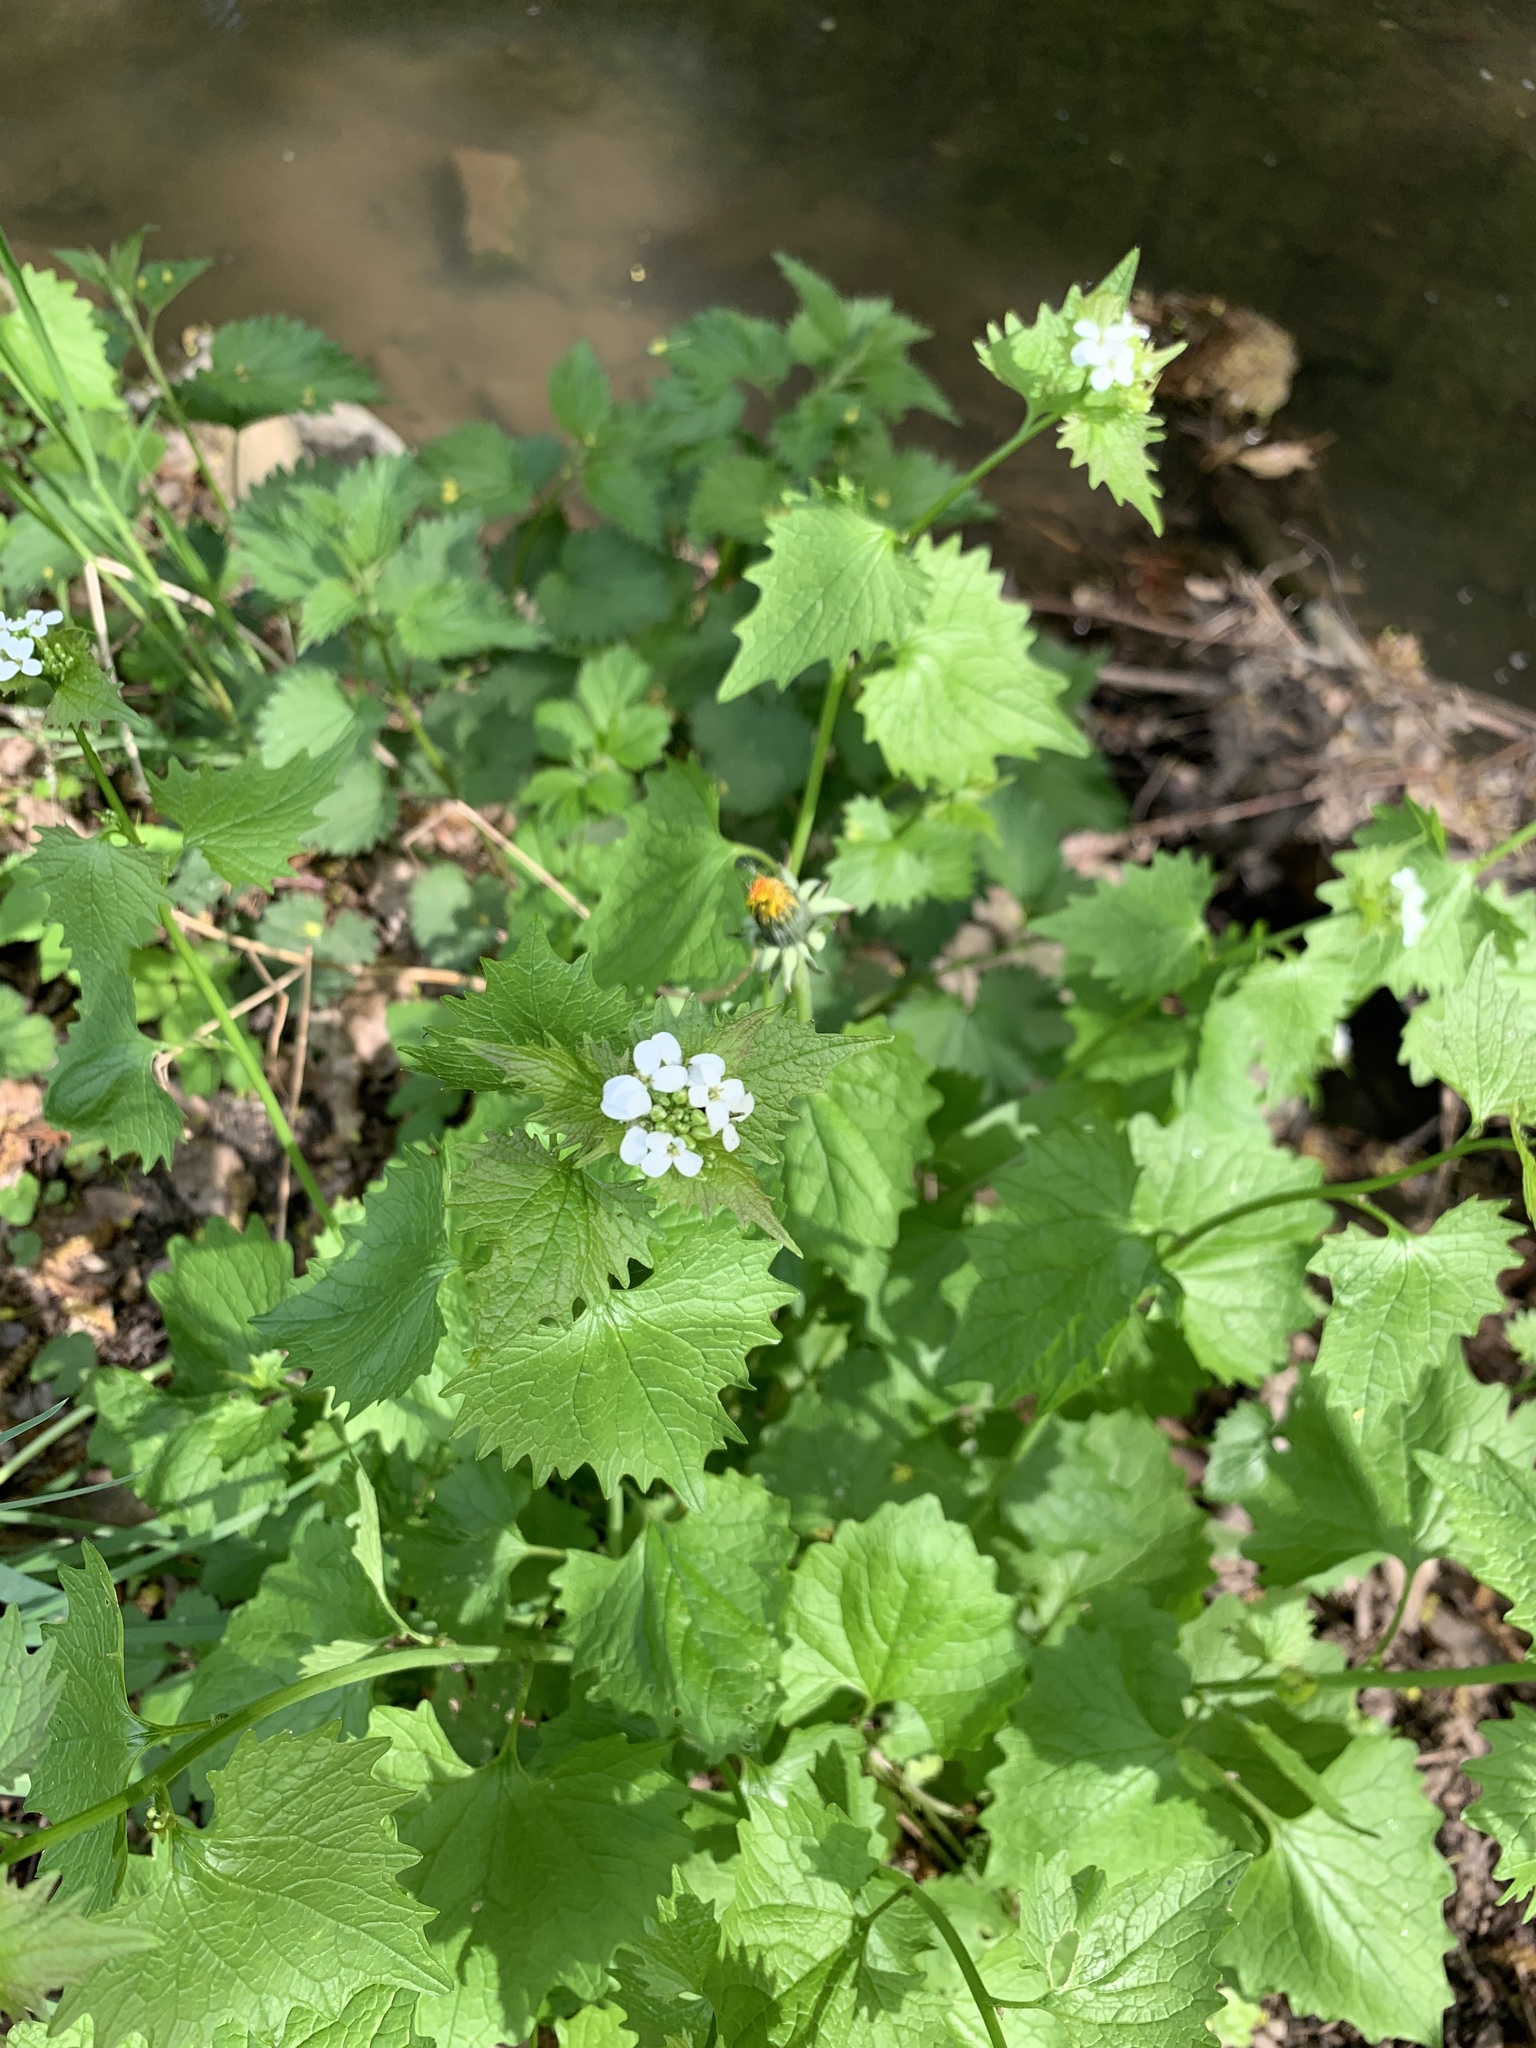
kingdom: Plantae
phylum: Tracheophyta
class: Magnoliopsida
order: Brassicales
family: Brassicaceae
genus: Alliaria
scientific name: Alliaria petiolata
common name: Garlic mustard
